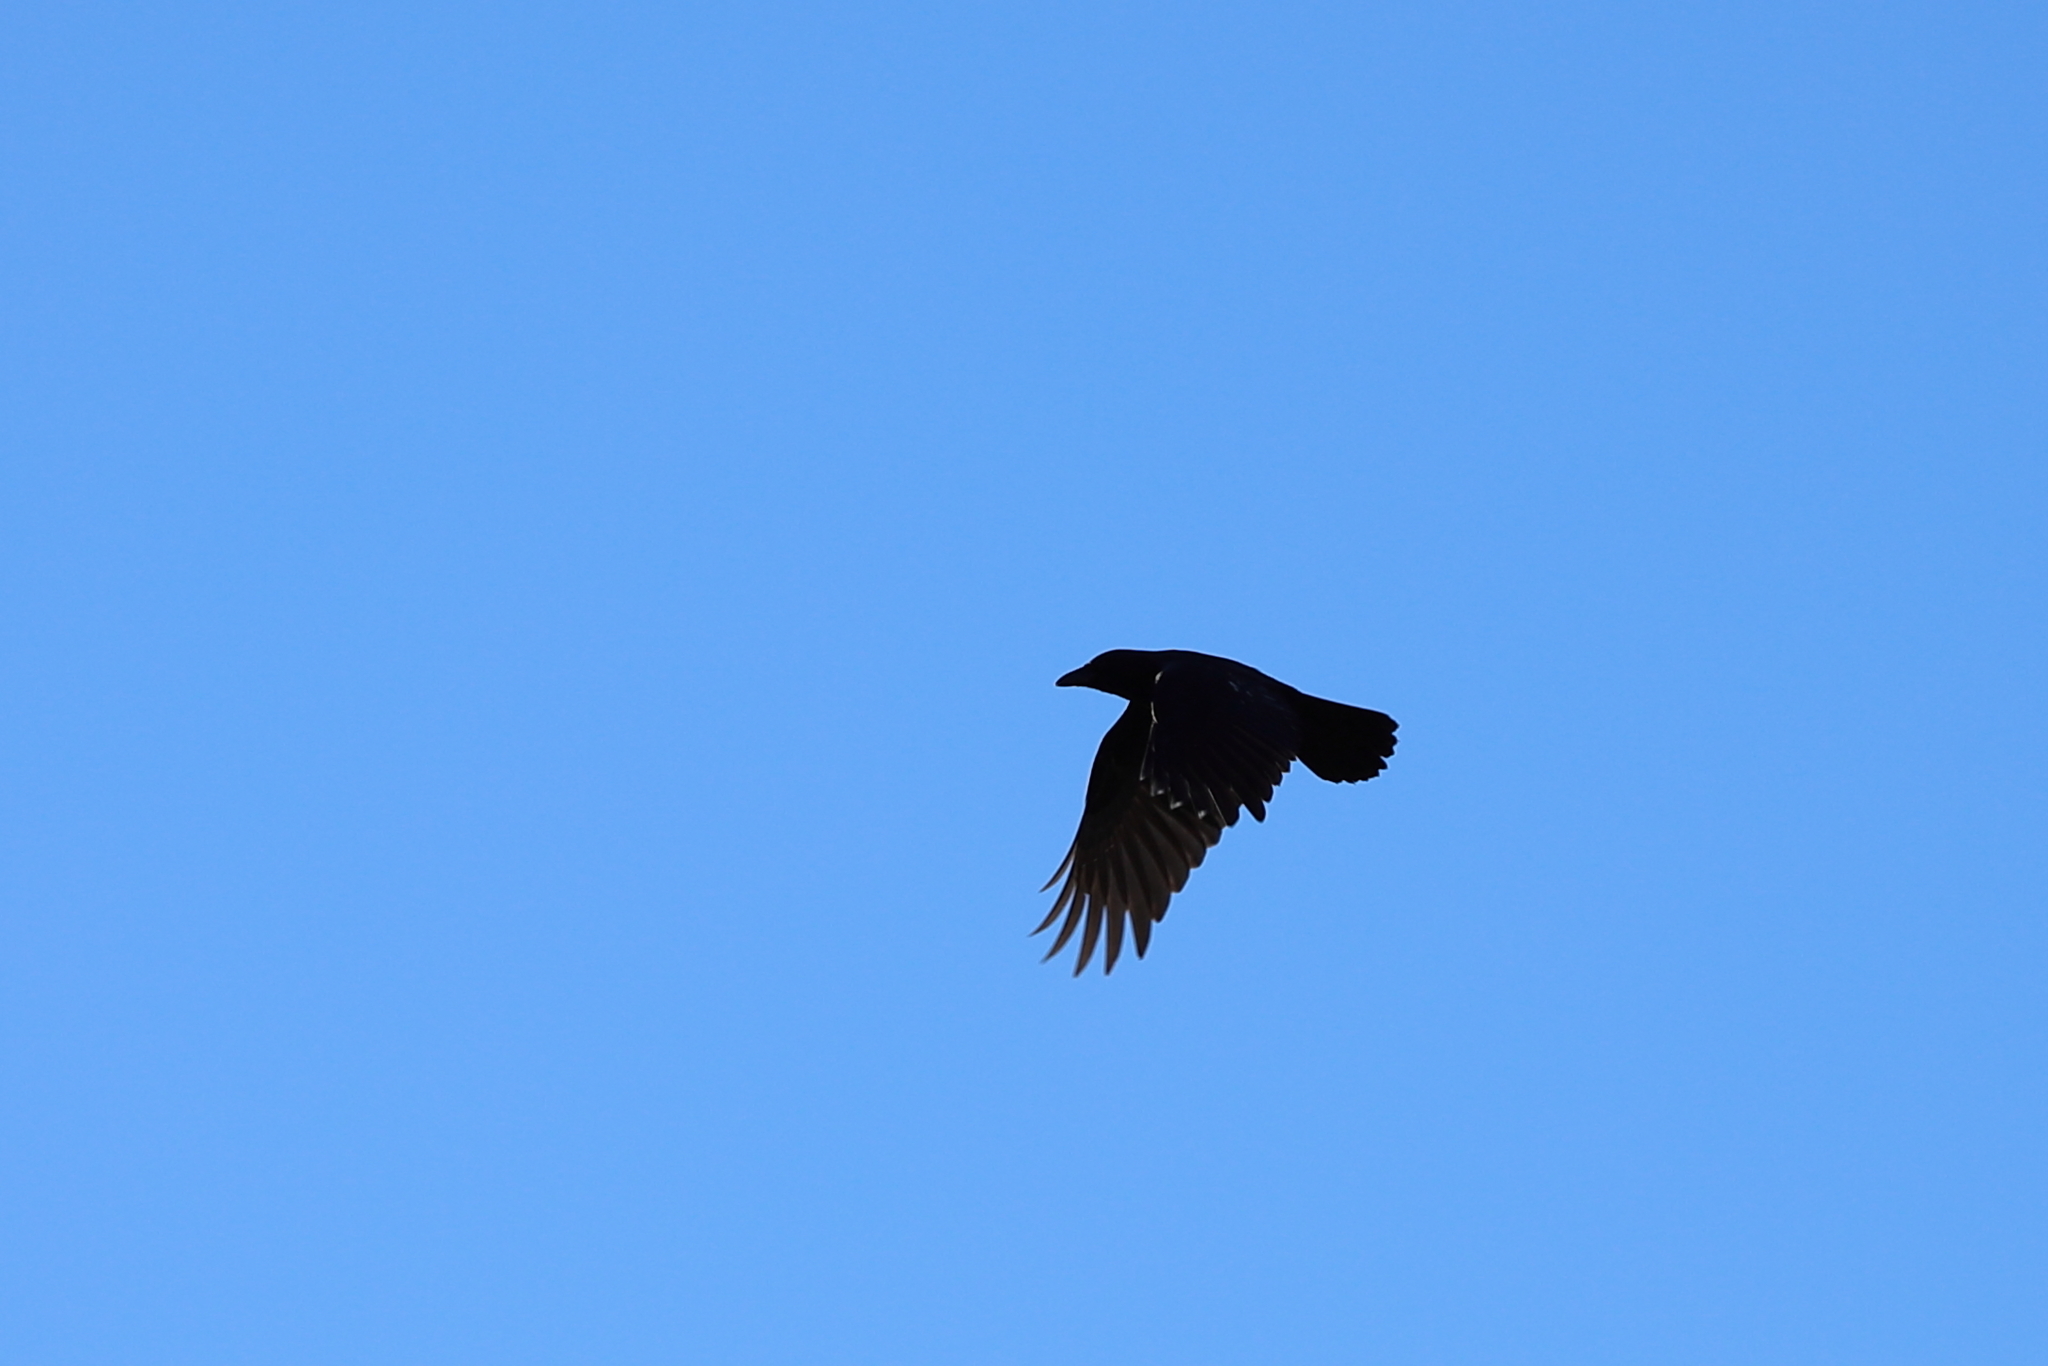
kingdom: Animalia
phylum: Chordata
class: Aves
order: Passeriformes
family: Corvidae
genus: Corvus
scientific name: Corvus brachyrhynchos
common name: American crow
